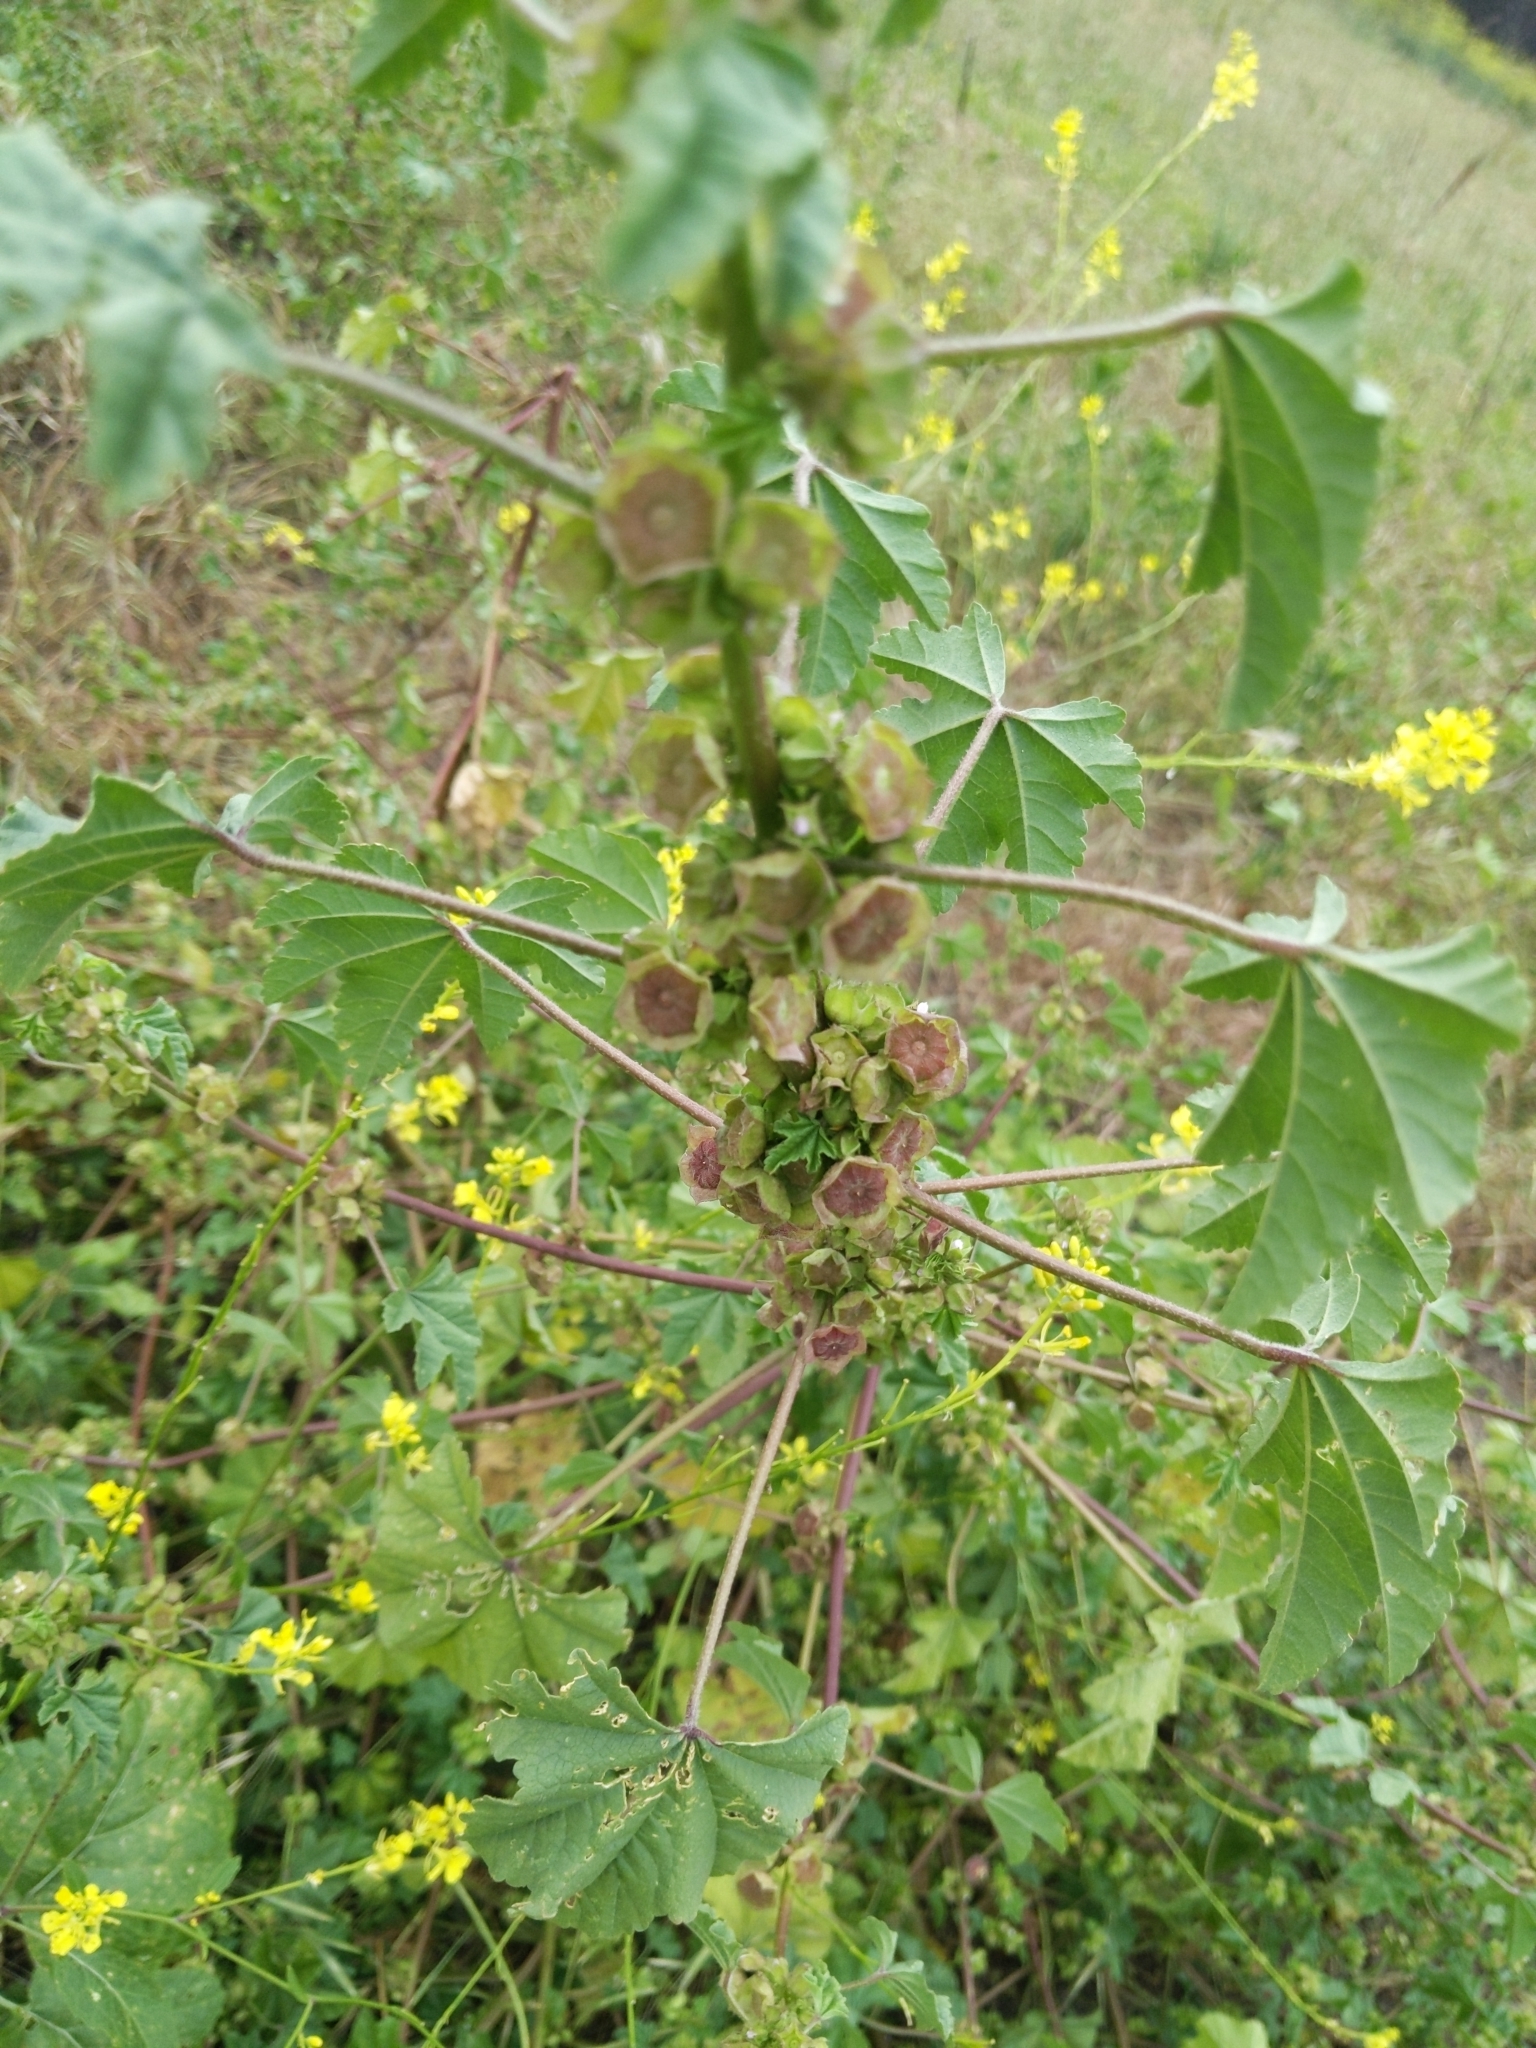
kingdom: Plantae
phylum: Tracheophyta
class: Magnoliopsida
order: Malvales
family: Malvaceae
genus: Malva
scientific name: Malva parviflora
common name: Least mallow
